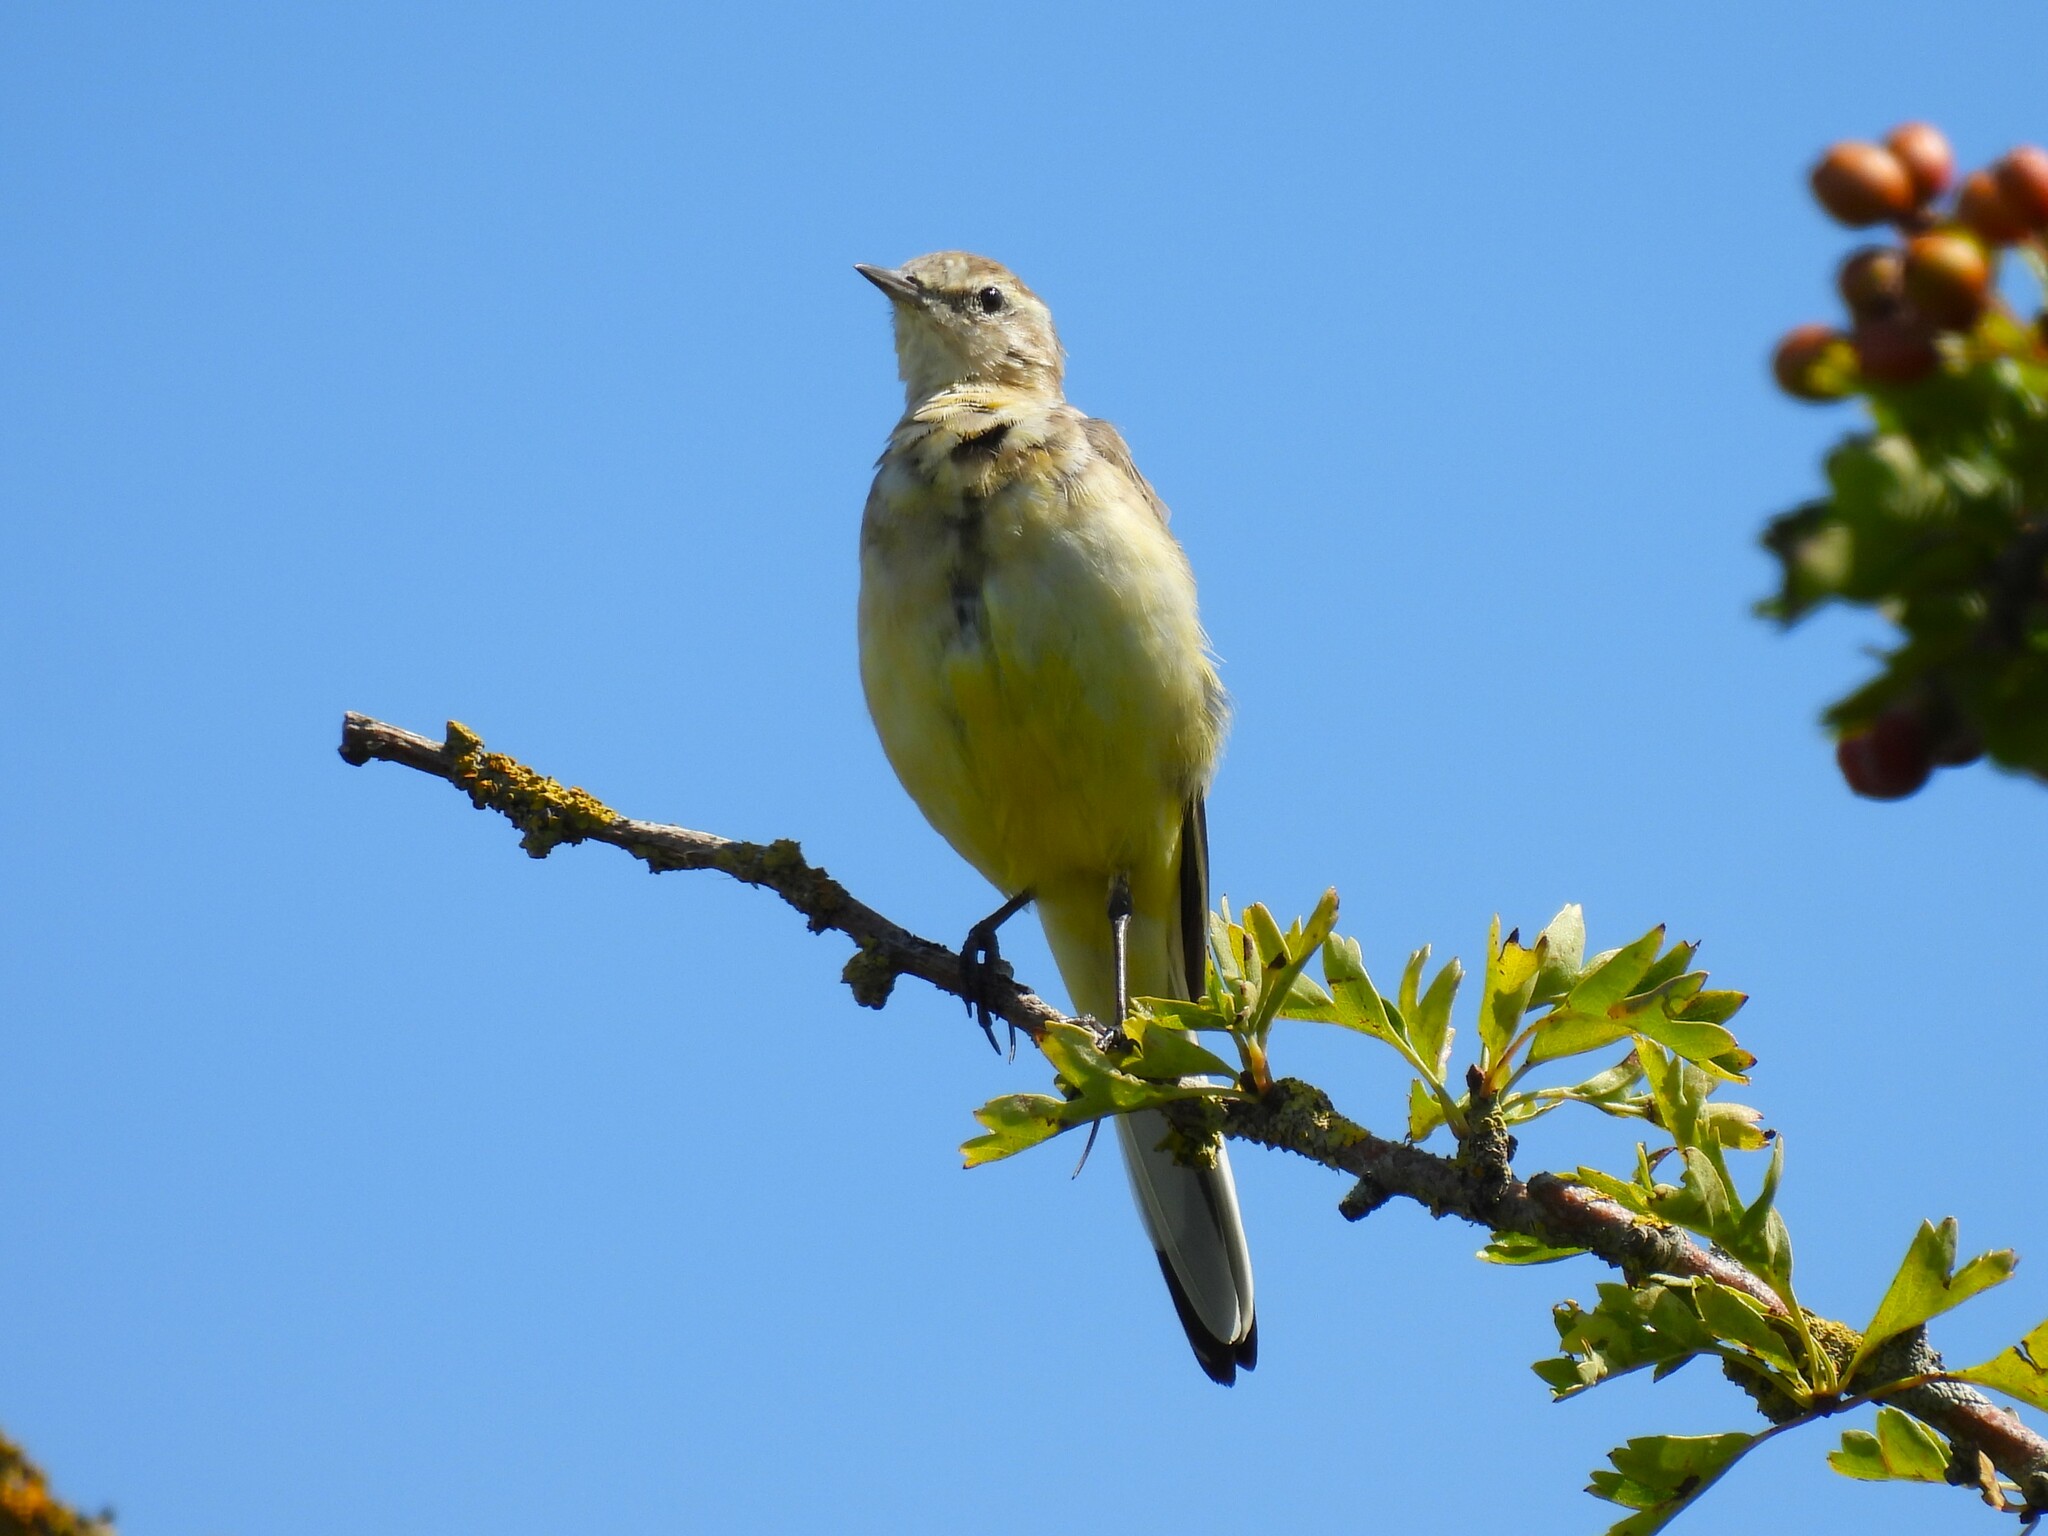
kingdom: Animalia
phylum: Chordata
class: Aves
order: Passeriformes
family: Motacillidae
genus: Motacilla
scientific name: Motacilla flava
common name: Western yellow wagtail
